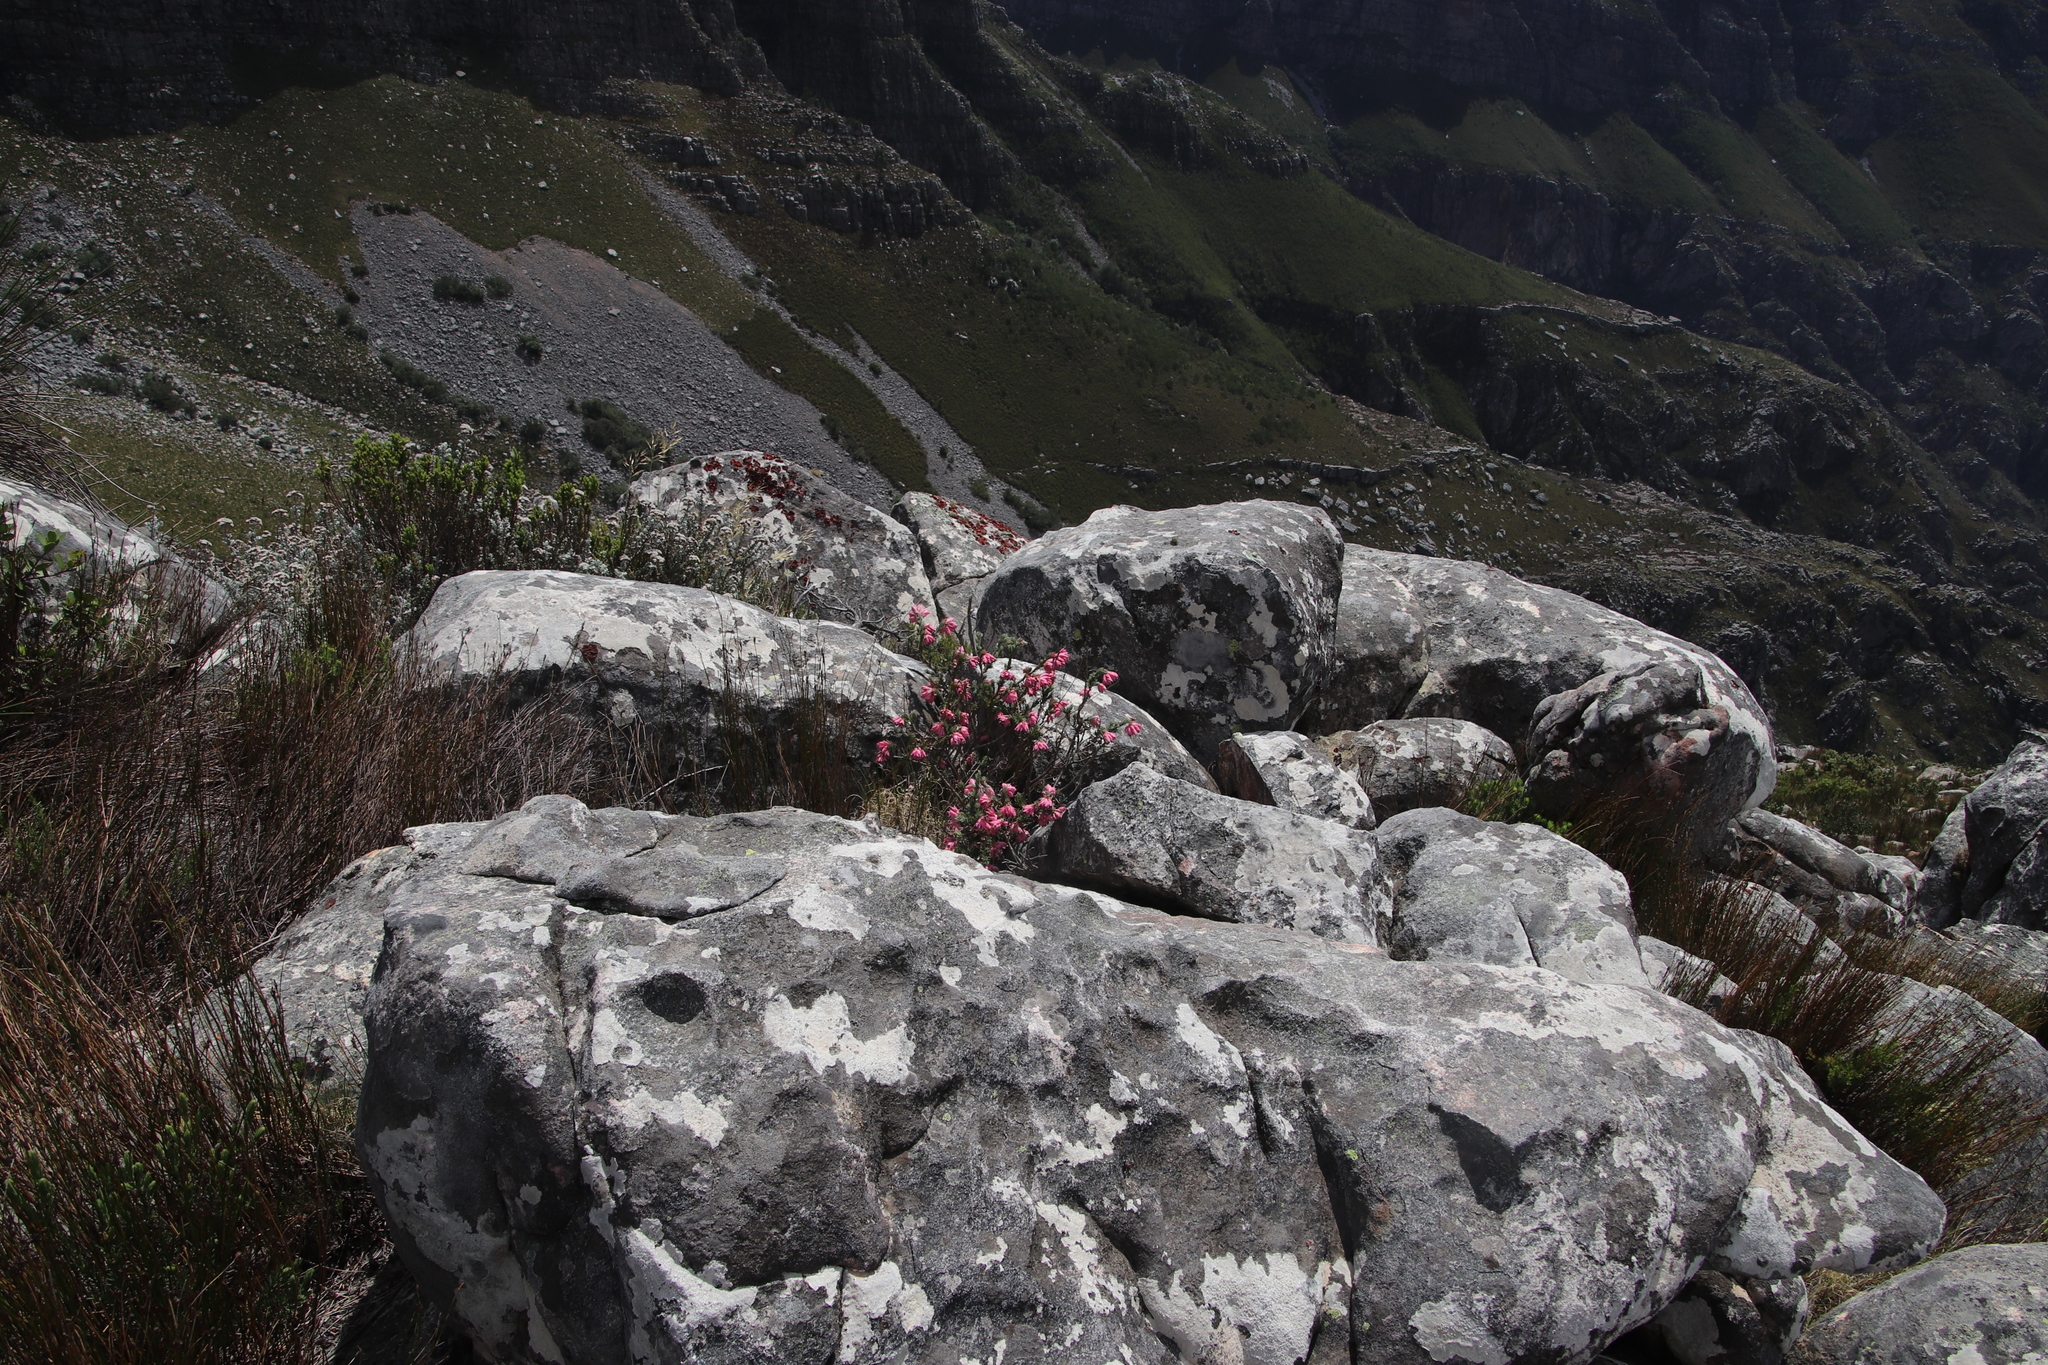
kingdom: Plantae
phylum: Tracheophyta
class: Magnoliopsida
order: Ericales
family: Ericaceae
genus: Erica
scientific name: Erica glauca
